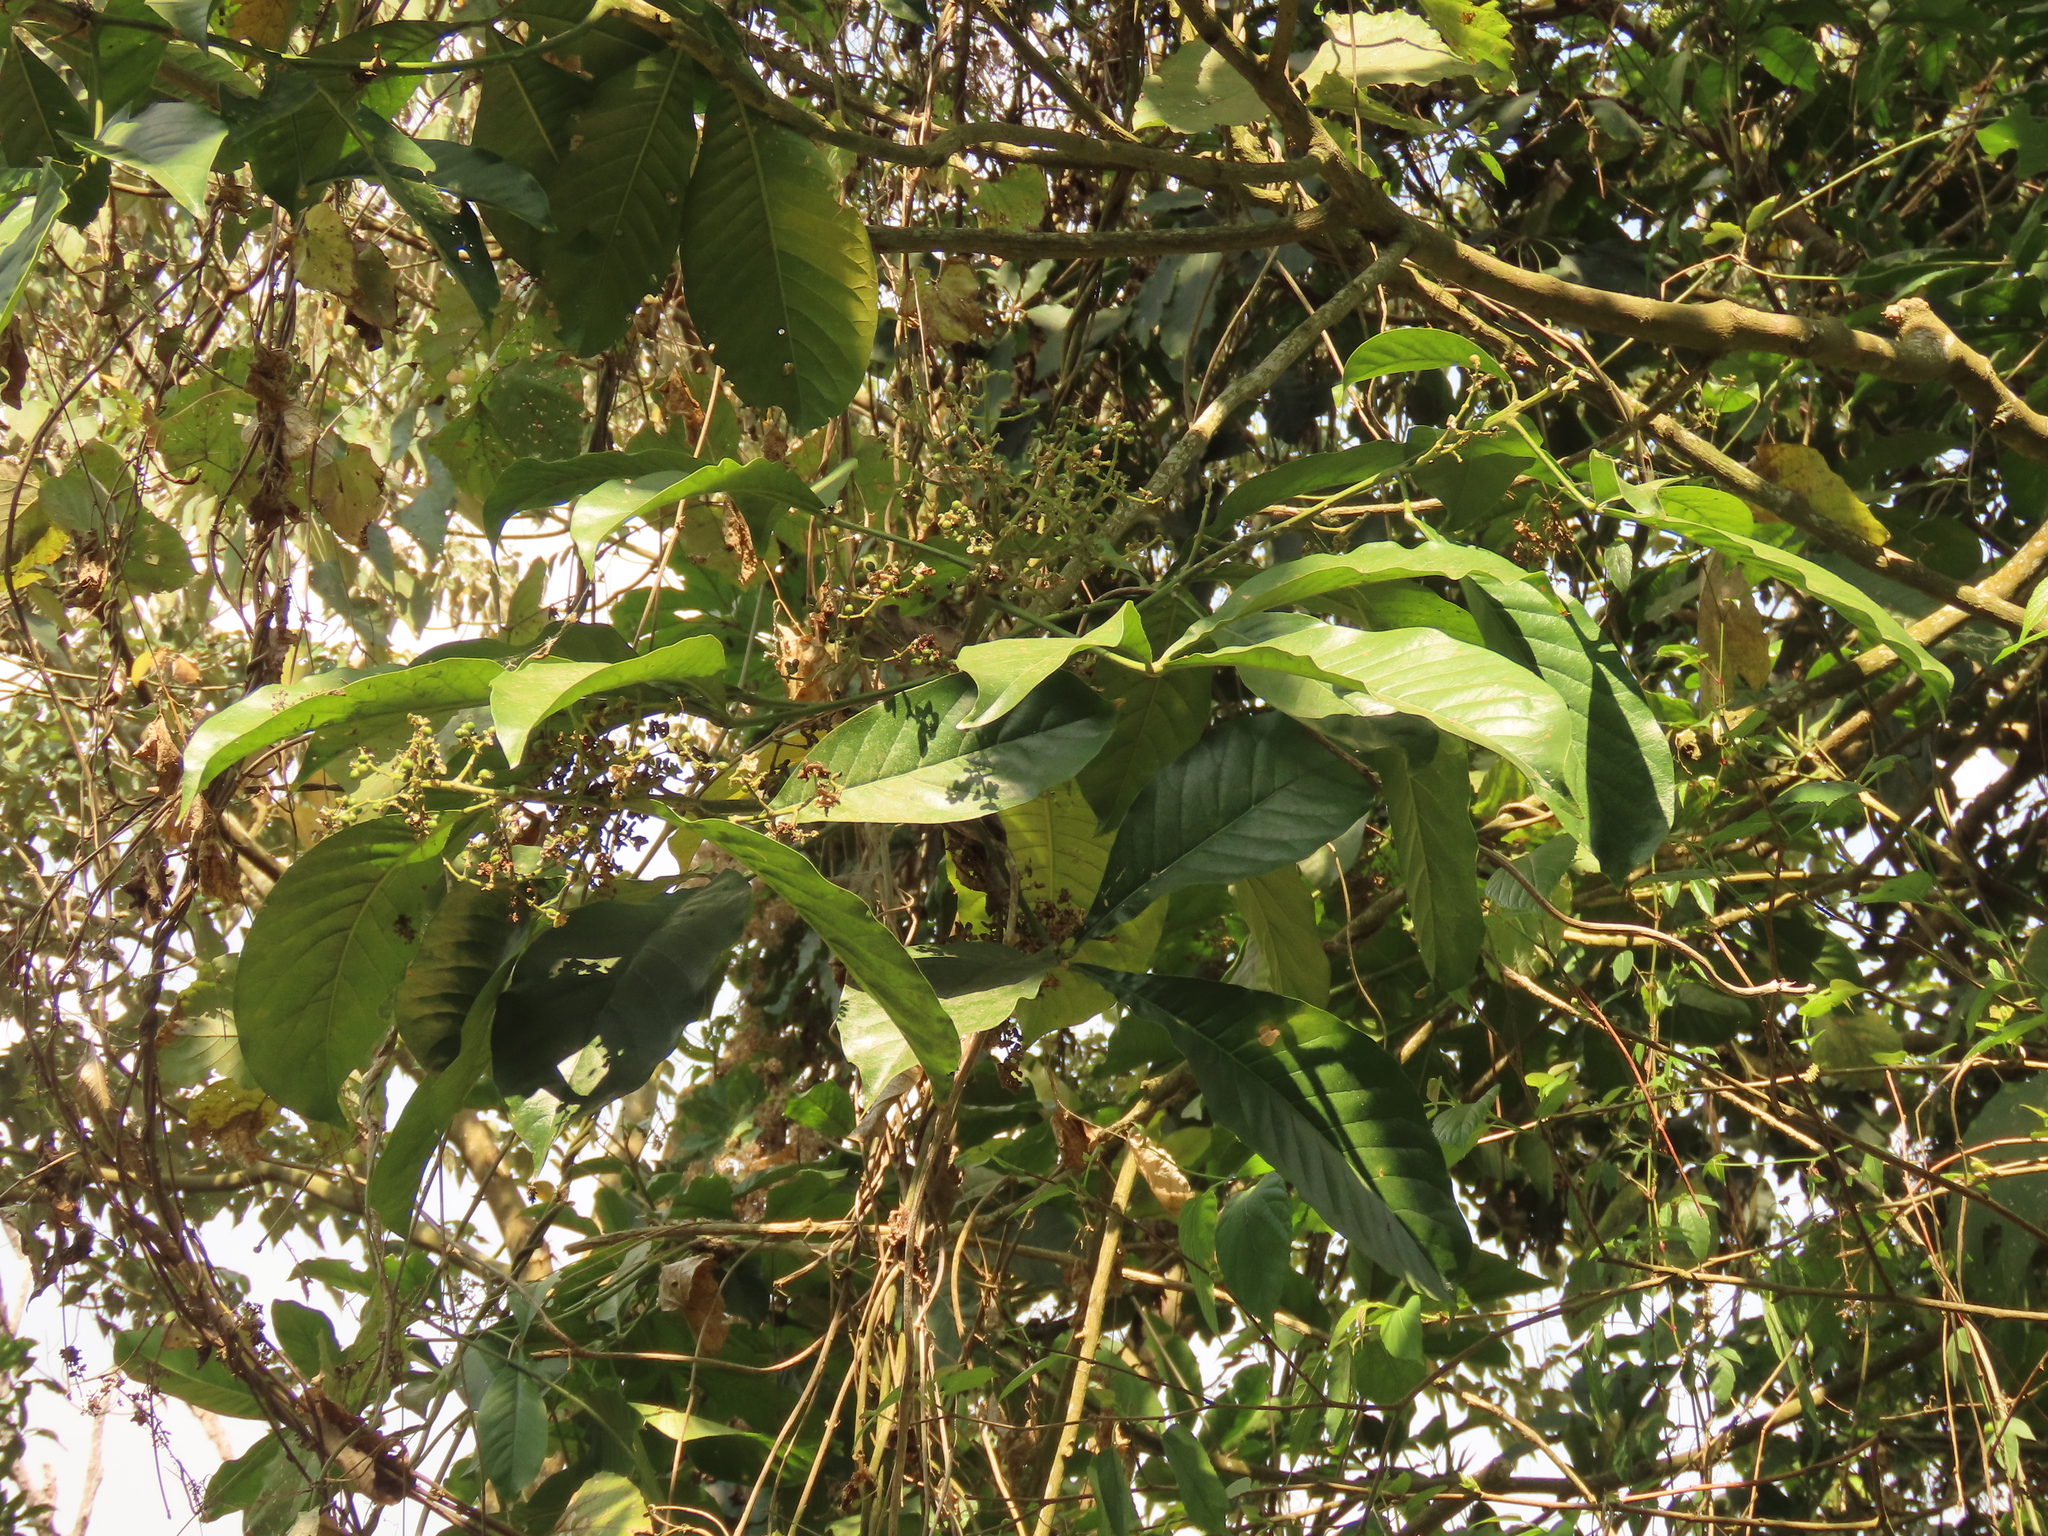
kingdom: Plantae
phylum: Tracheophyta
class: Magnoliopsida
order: Sapindales
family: Rutaceae
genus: Melicope
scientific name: Melicope semecarpifolia
